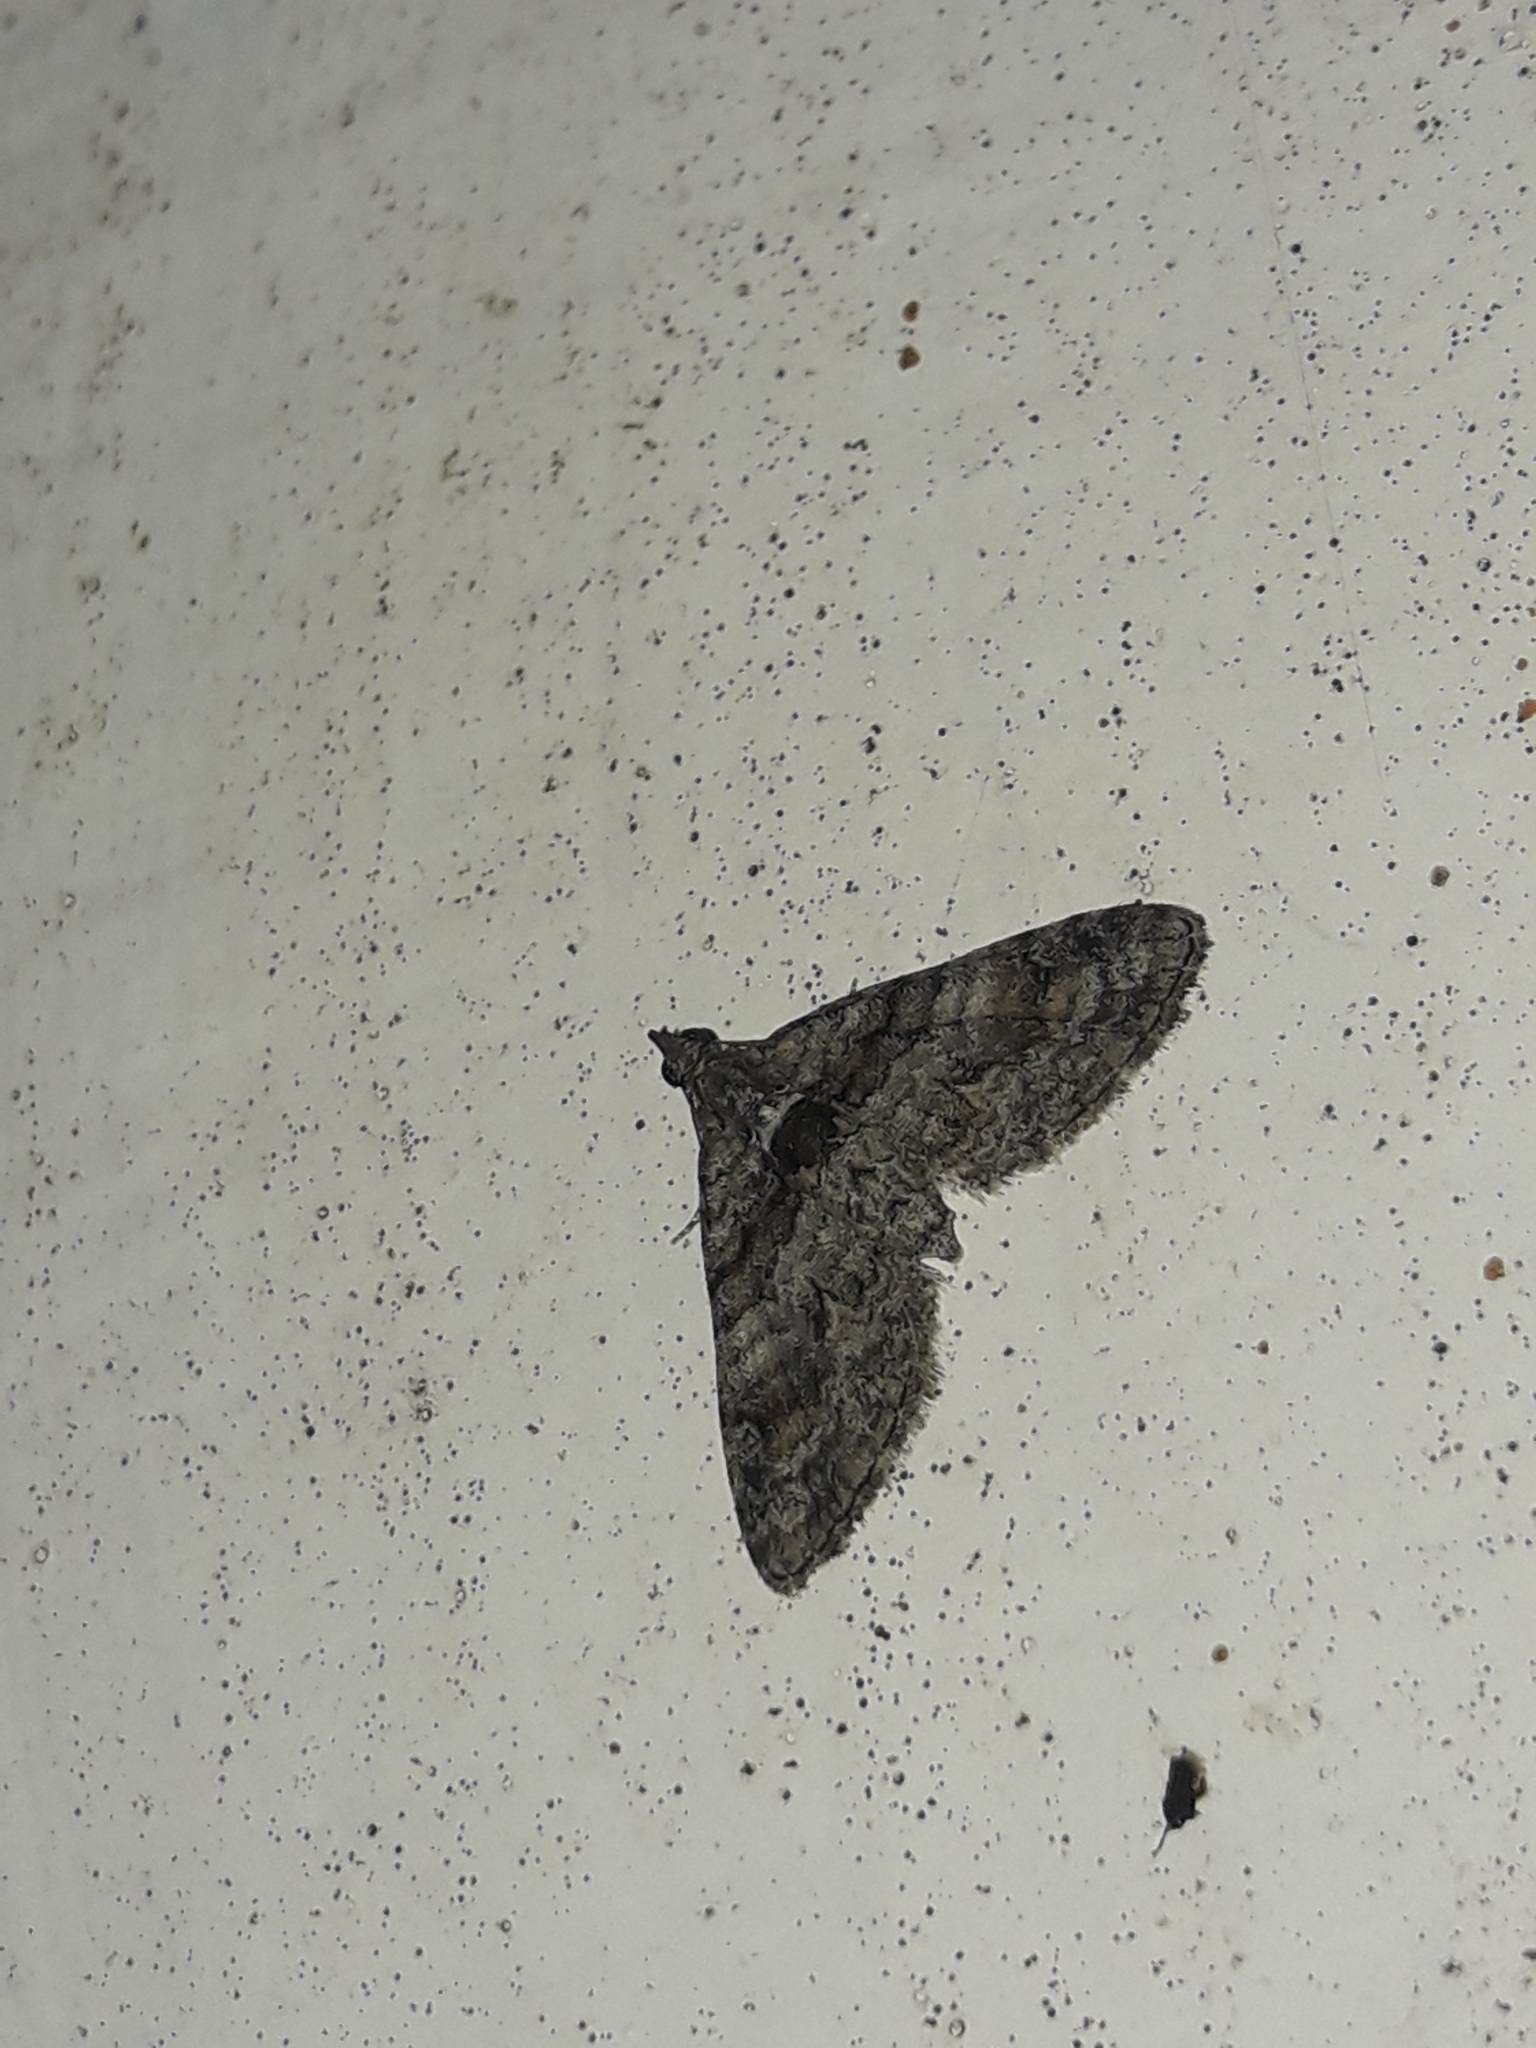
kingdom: Animalia
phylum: Arthropoda
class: Insecta
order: Lepidoptera
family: Geometridae
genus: Phrissogonus
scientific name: Phrissogonus laticostata
